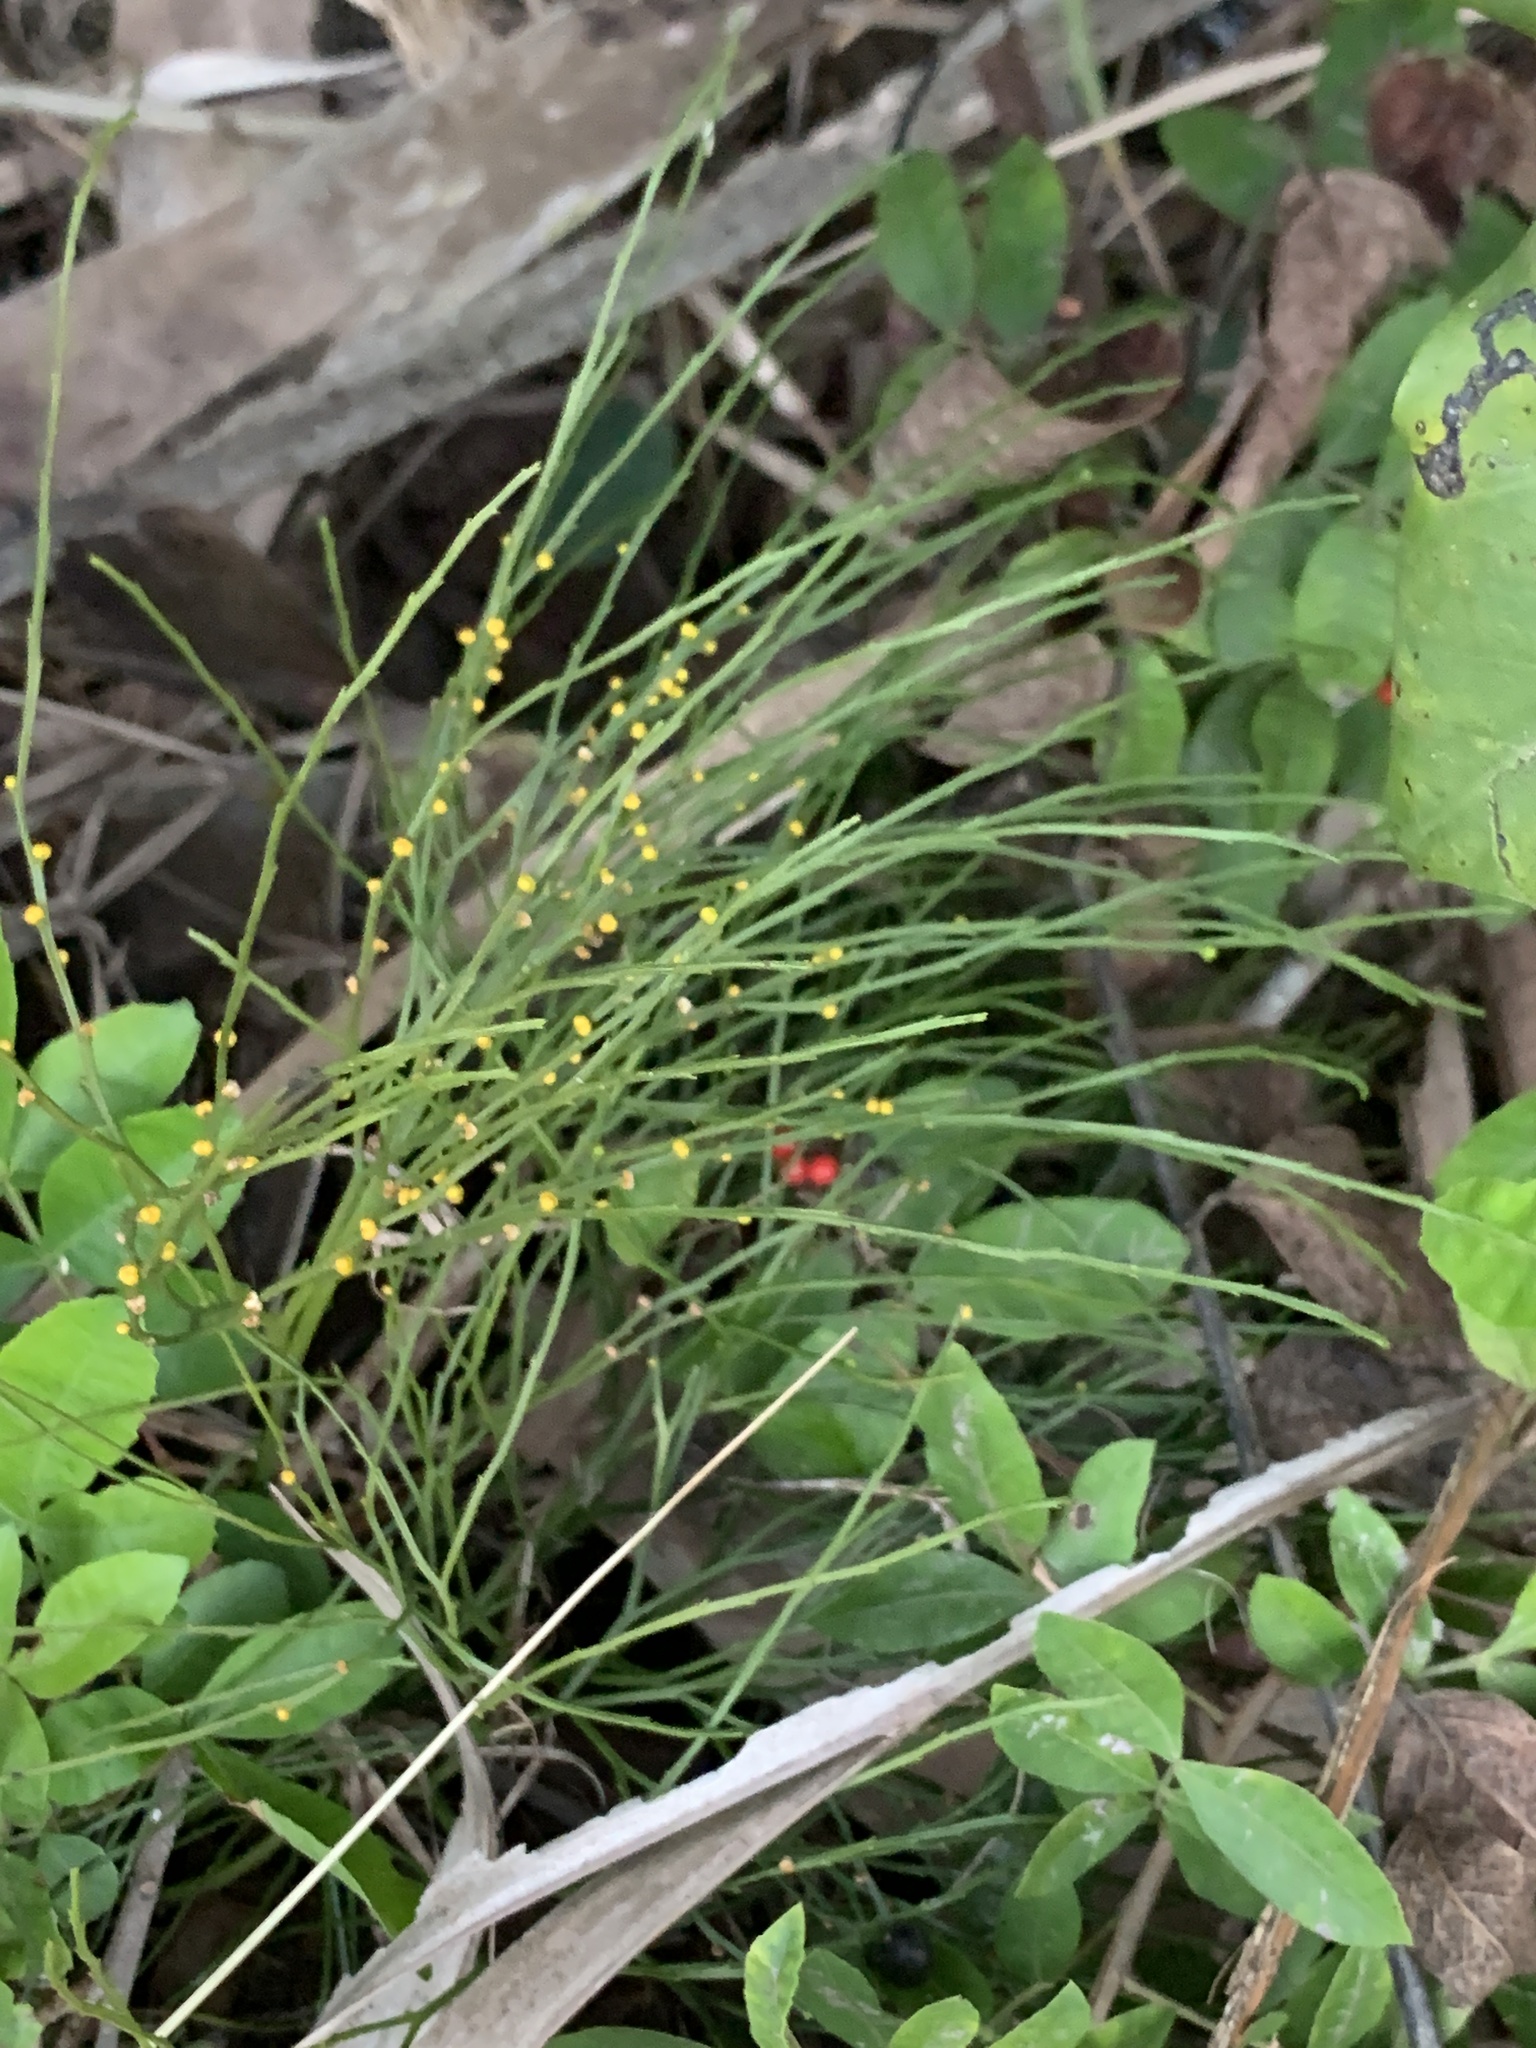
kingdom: Plantae
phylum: Tracheophyta
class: Polypodiopsida
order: Psilotales
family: Psilotaceae
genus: Psilotum
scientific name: Psilotum nudum
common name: Skeleton fork fern
